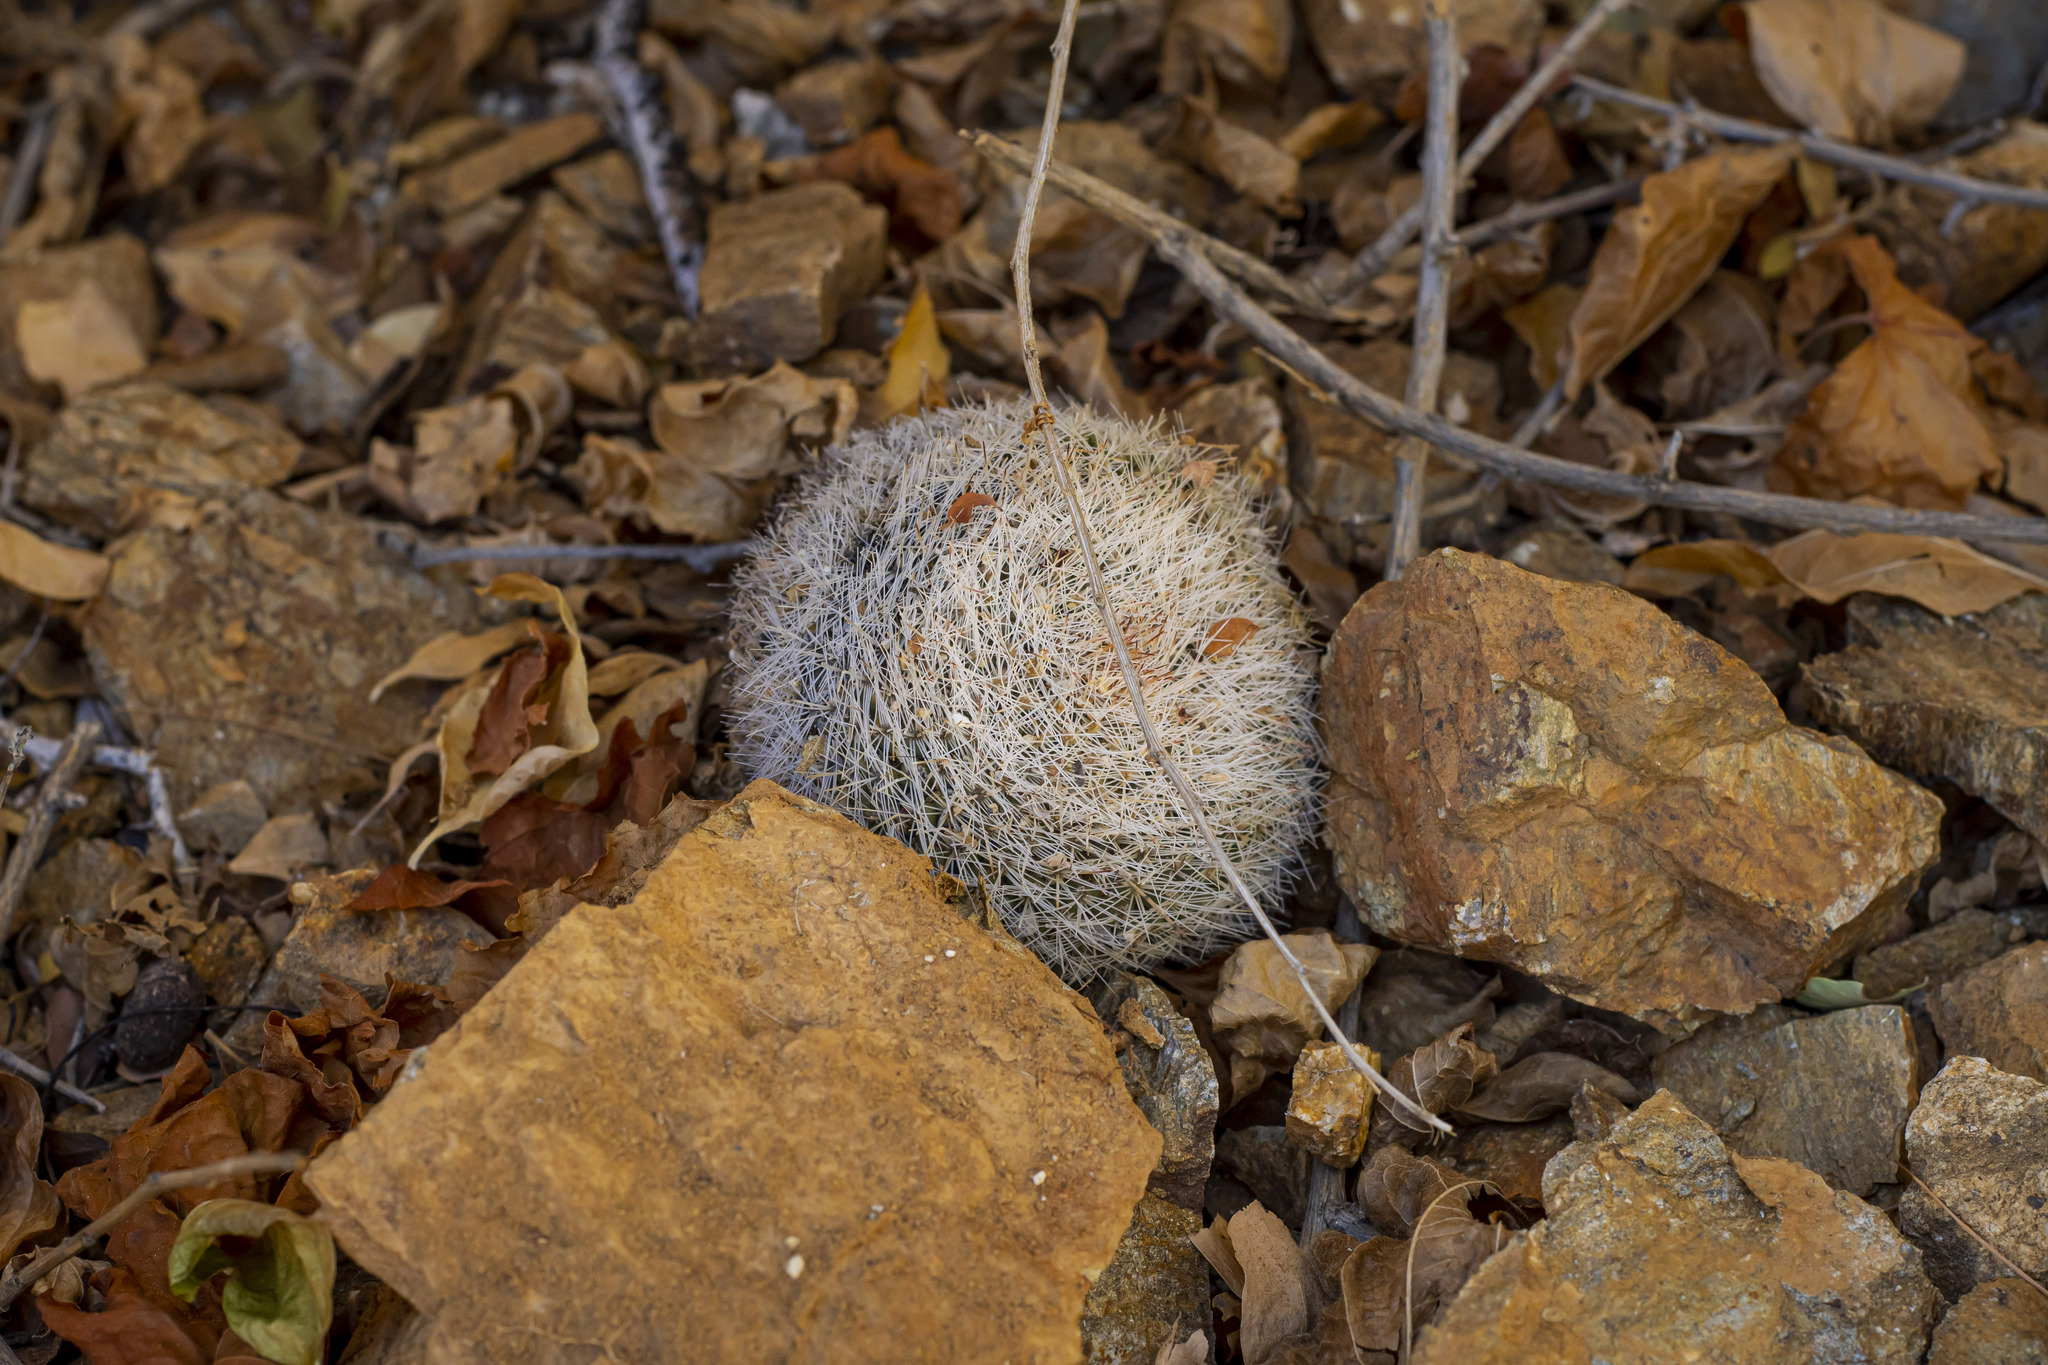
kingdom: Plantae
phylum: Tracheophyta
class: Magnoliopsida
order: Caryophyllales
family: Cactaceae
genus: Mammillaria
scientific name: Mammillaria evermanniana
